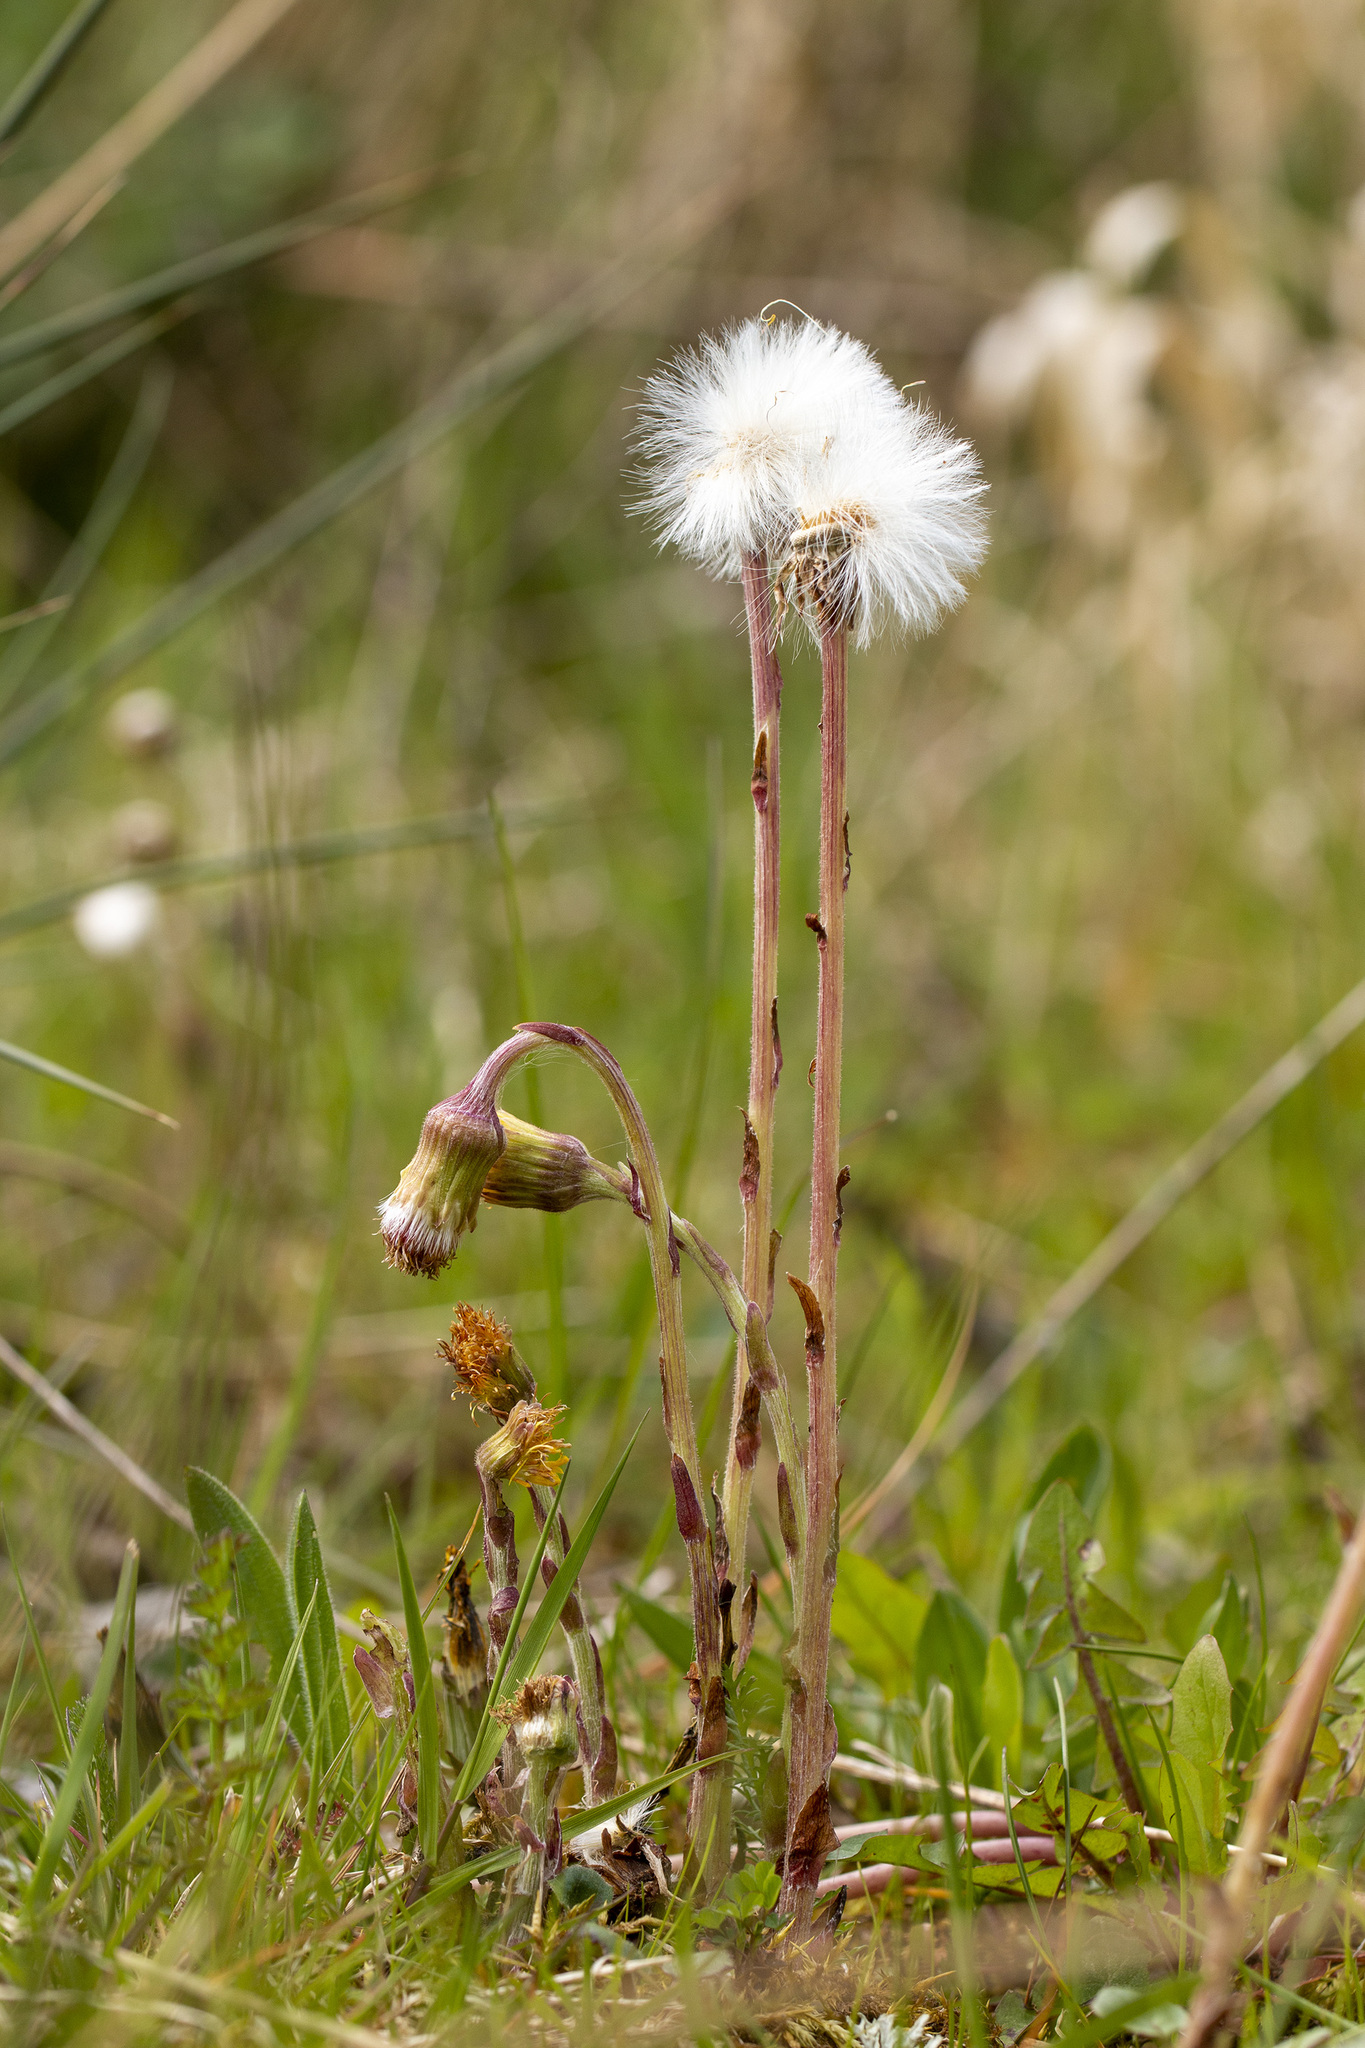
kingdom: Plantae
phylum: Tracheophyta
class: Magnoliopsida
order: Asterales
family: Asteraceae
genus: Tussilago
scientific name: Tussilago farfara
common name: Coltsfoot
